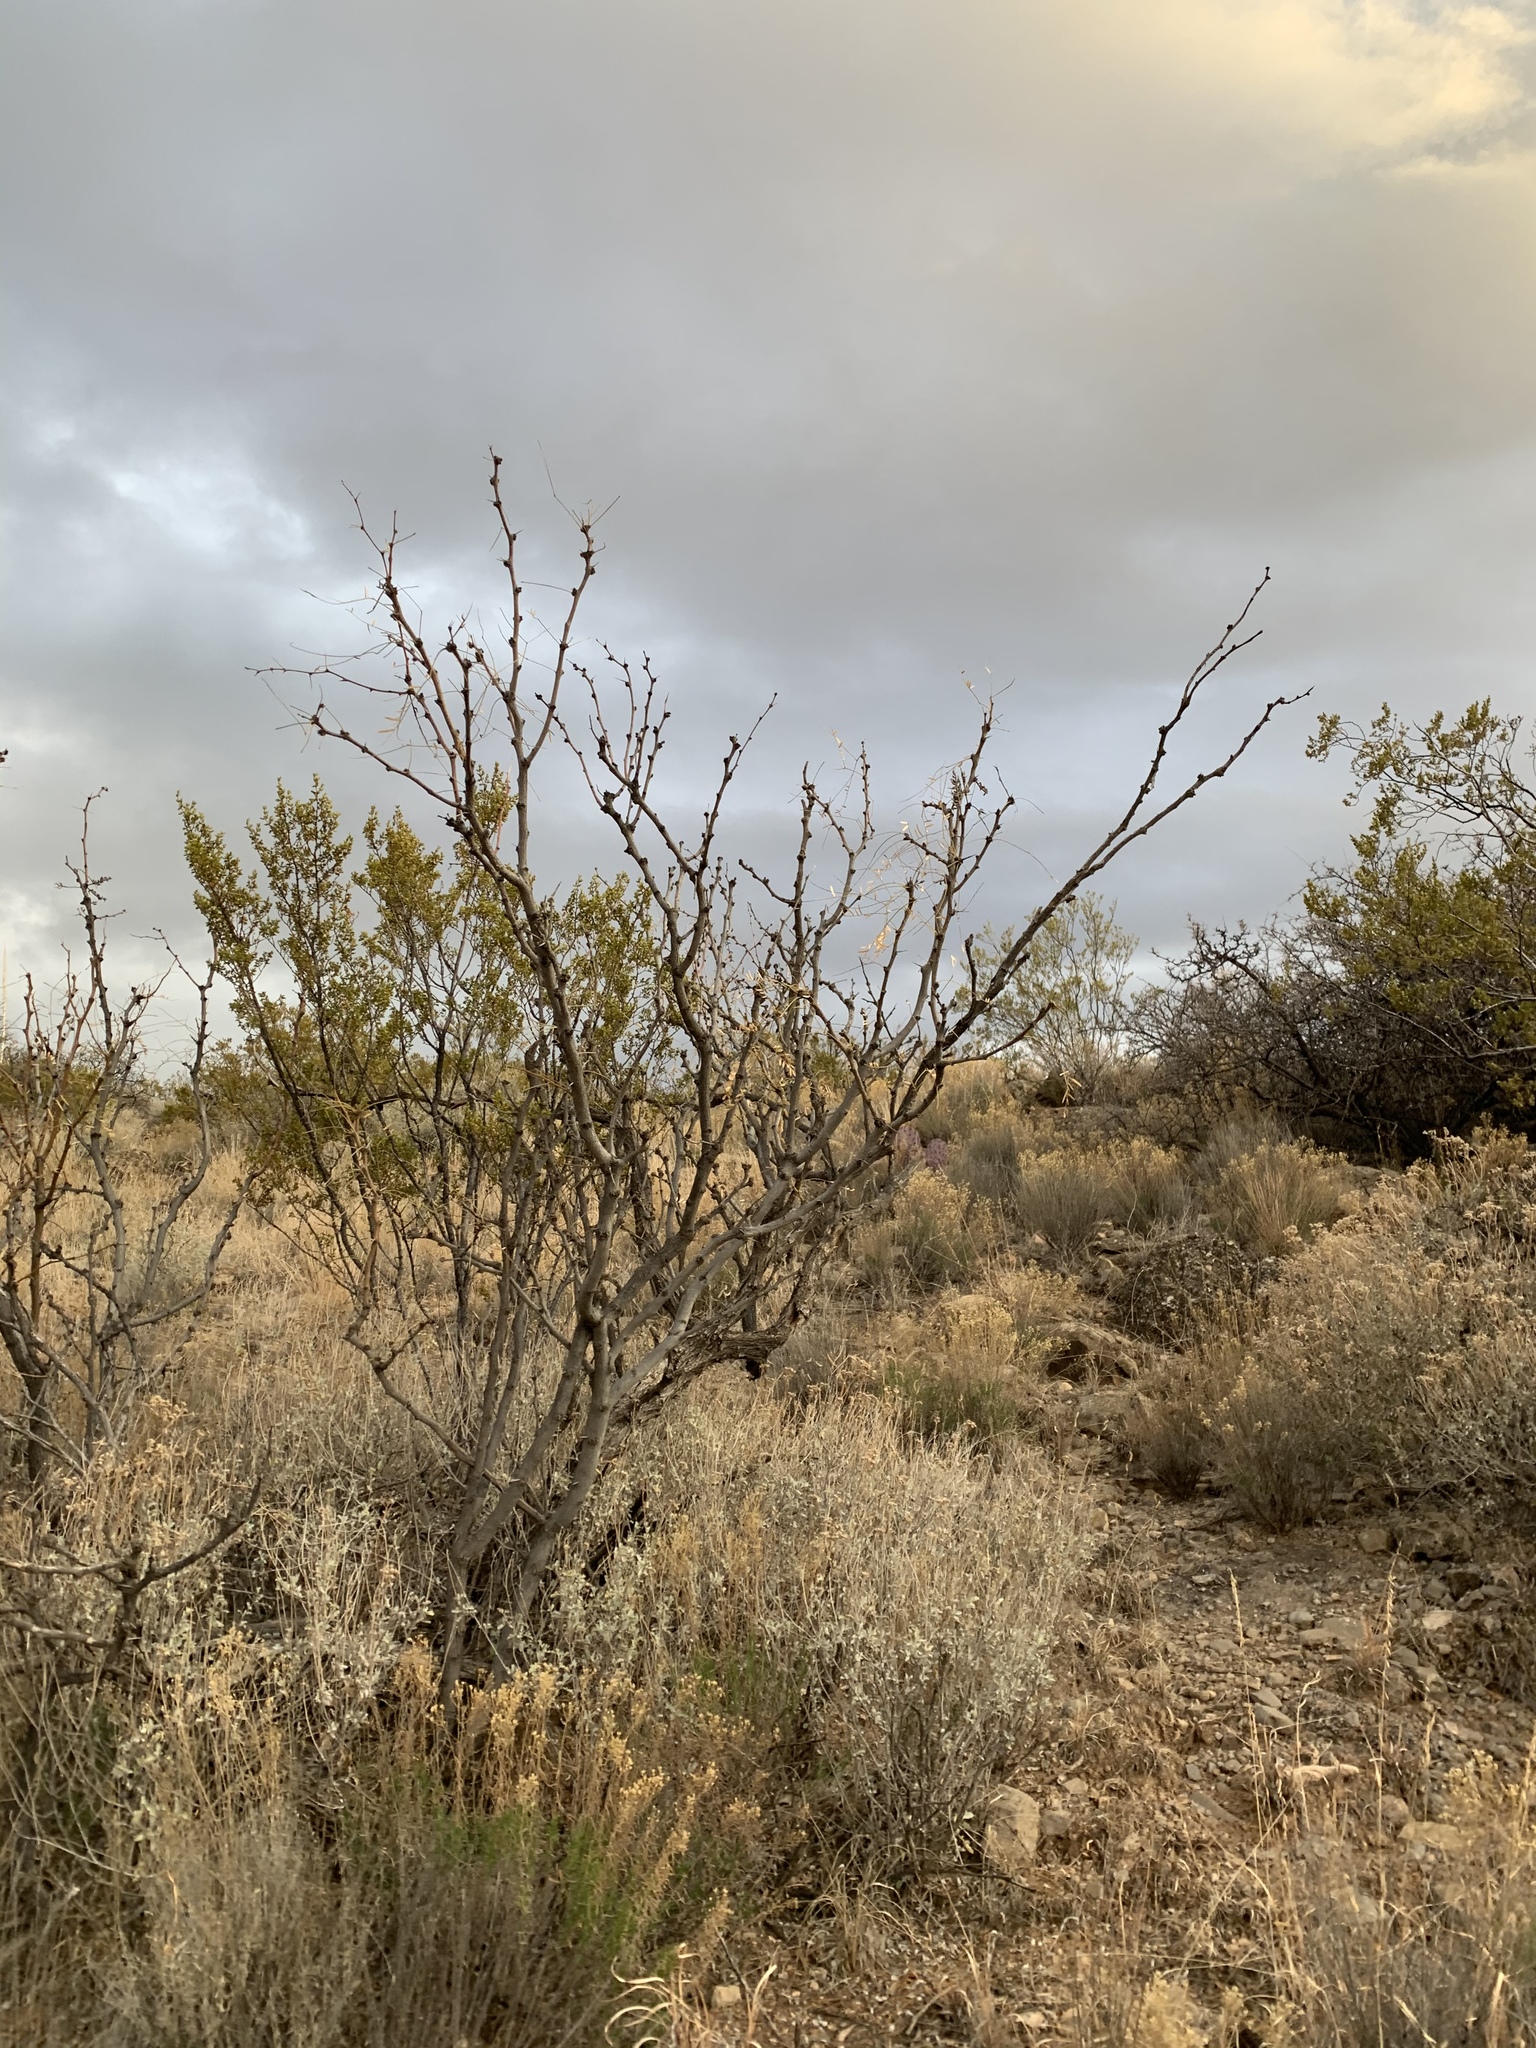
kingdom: Plantae
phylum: Tracheophyta
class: Magnoliopsida
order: Fabales
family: Fabaceae
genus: Prosopis
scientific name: Prosopis glandulosa
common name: Honey mesquite
